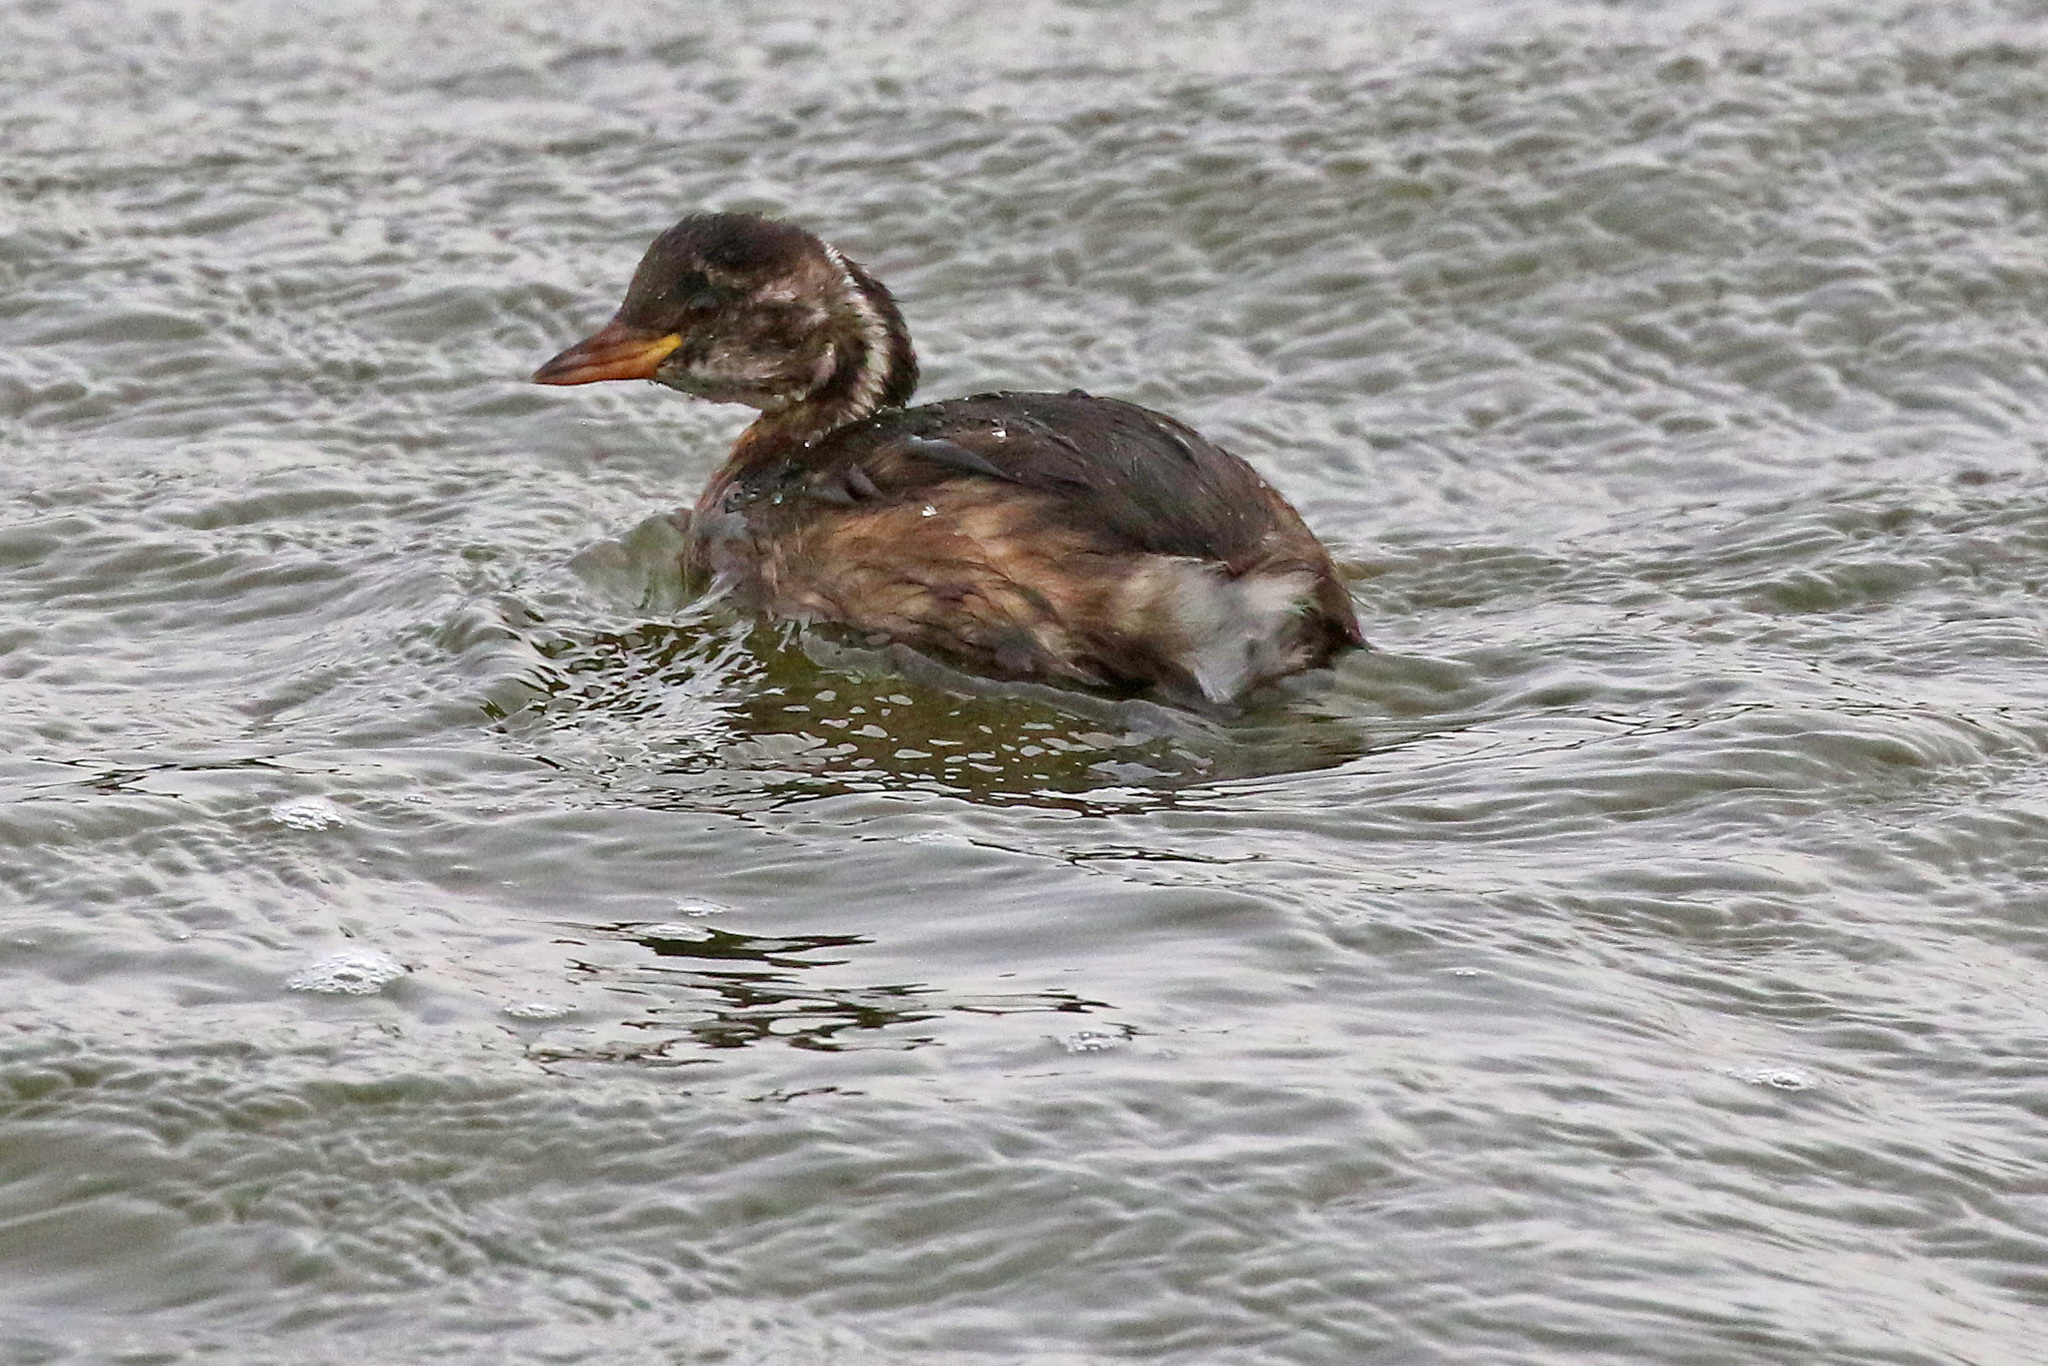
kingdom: Animalia
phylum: Chordata
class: Aves
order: Podicipediformes
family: Podicipedidae
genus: Tachybaptus
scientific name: Tachybaptus ruficollis
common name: Little grebe
